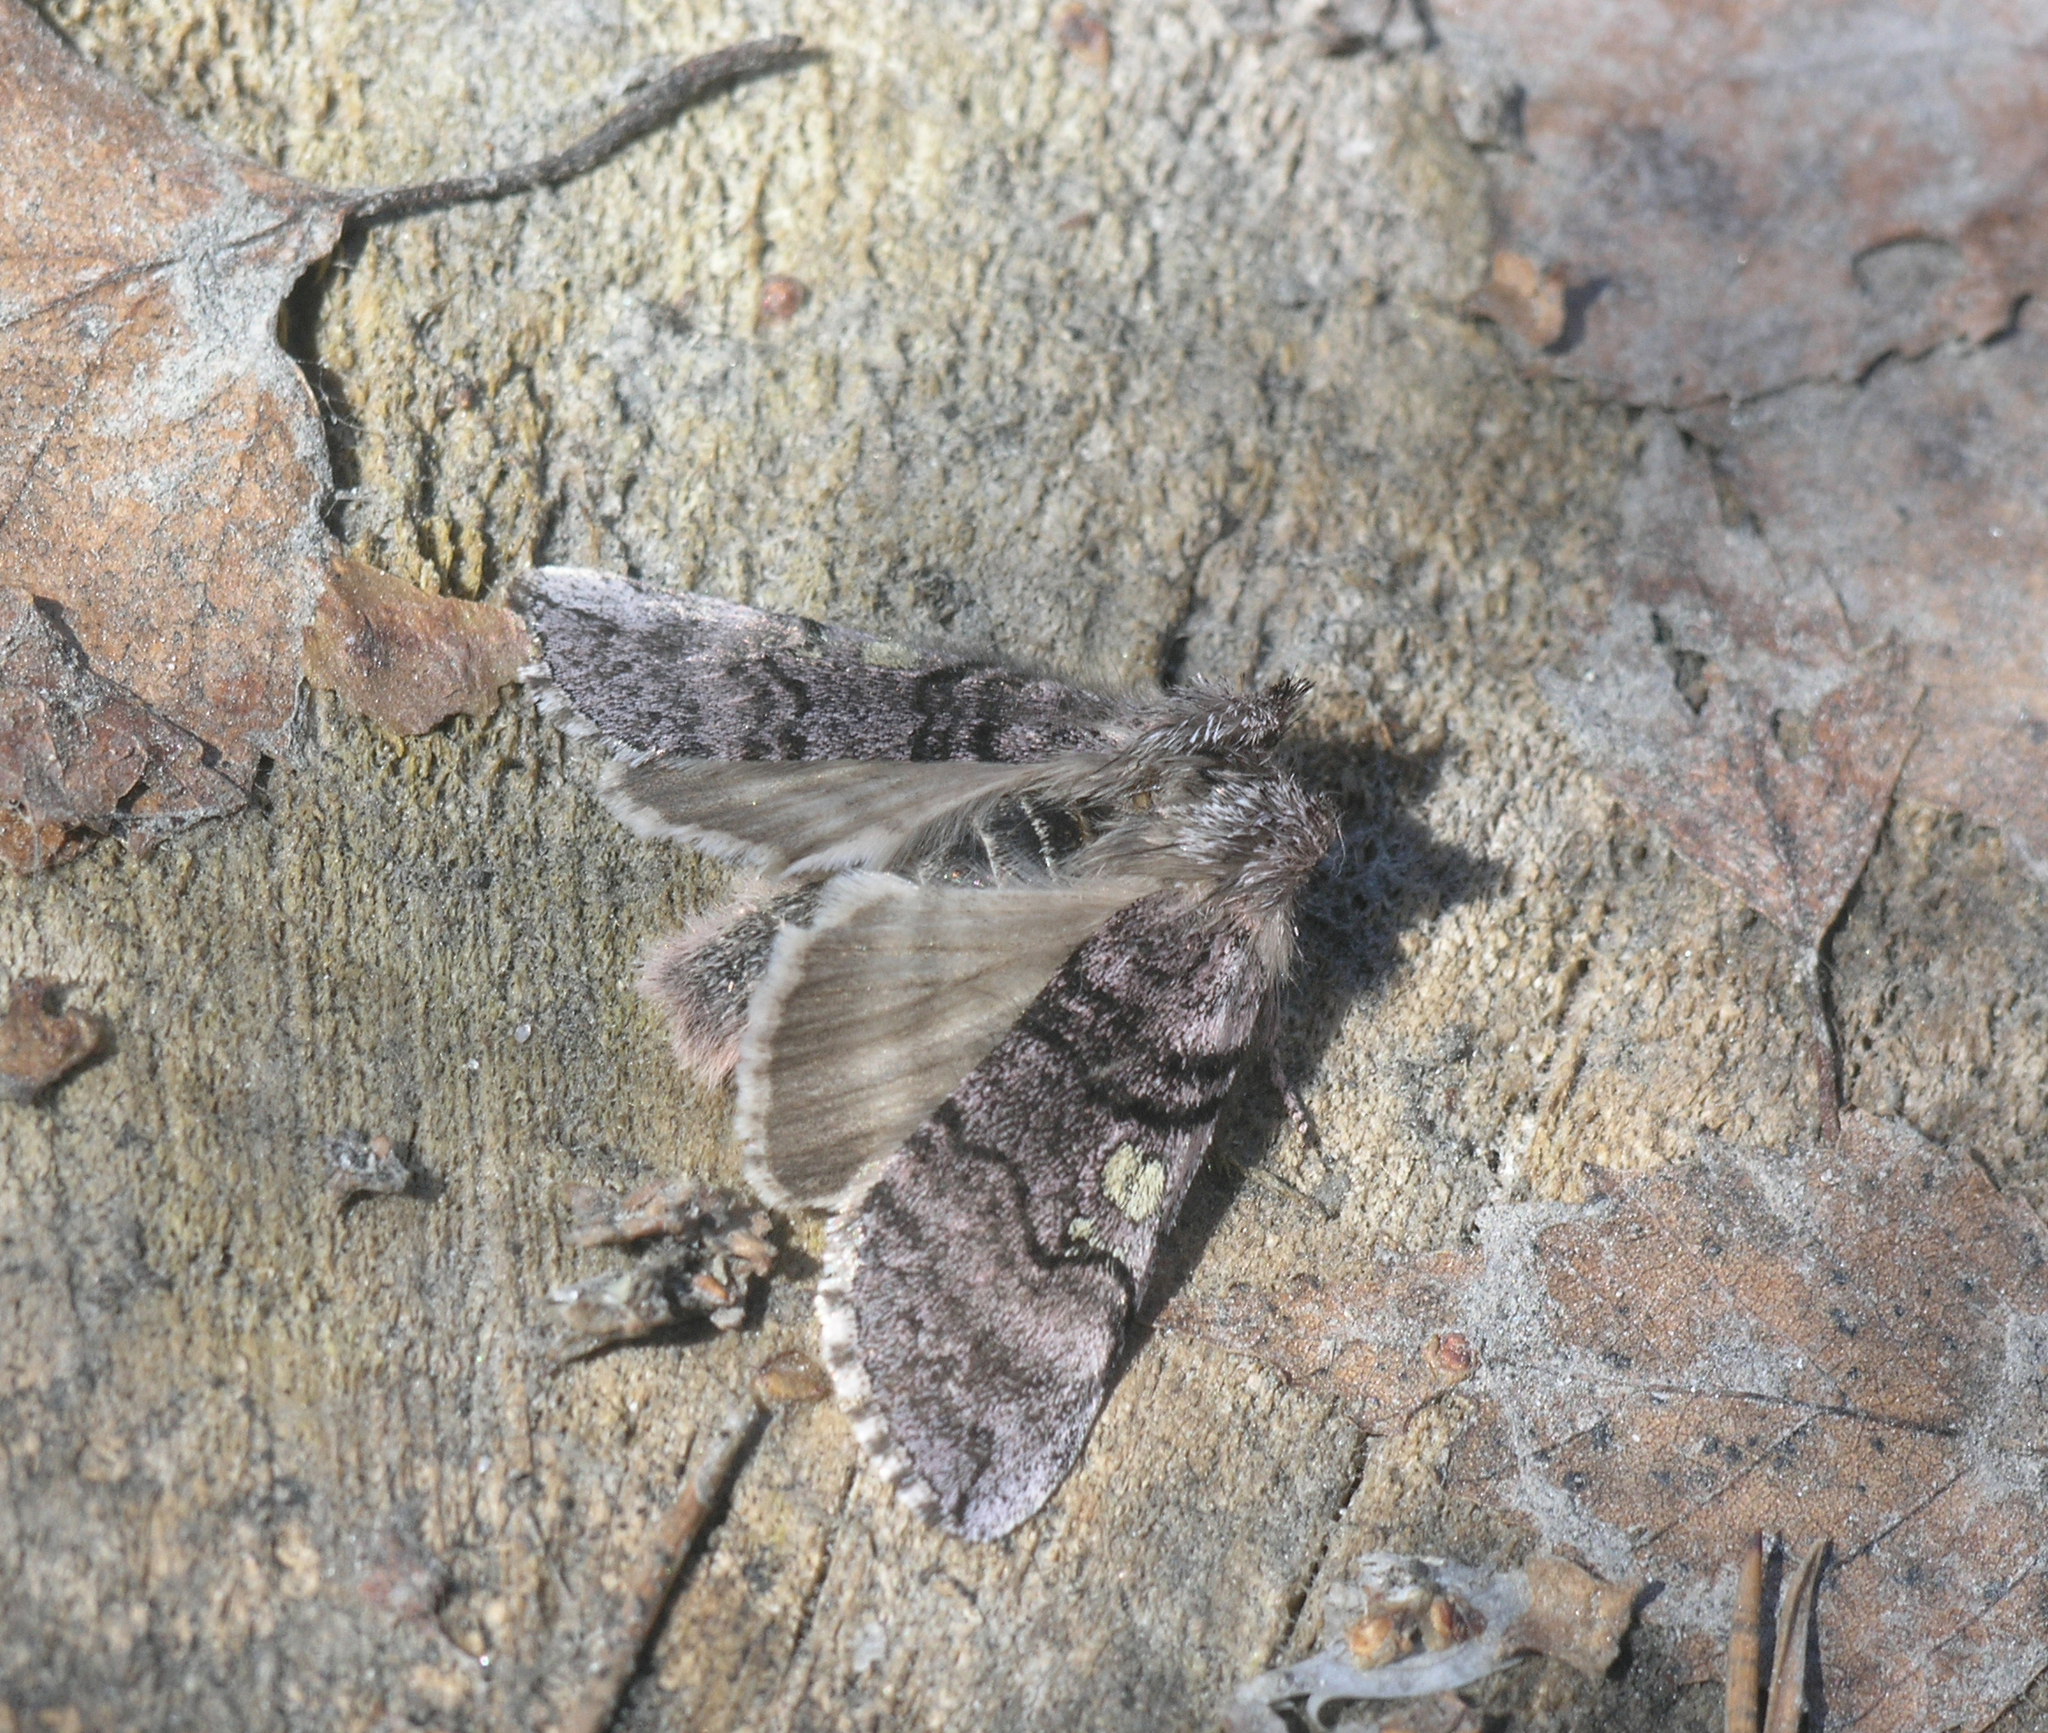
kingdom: Animalia
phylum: Arthropoda
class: Insecta
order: Lepidoptera
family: Drepanidae
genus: Achlya
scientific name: Achlya flavicornis
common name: Yellow horned
